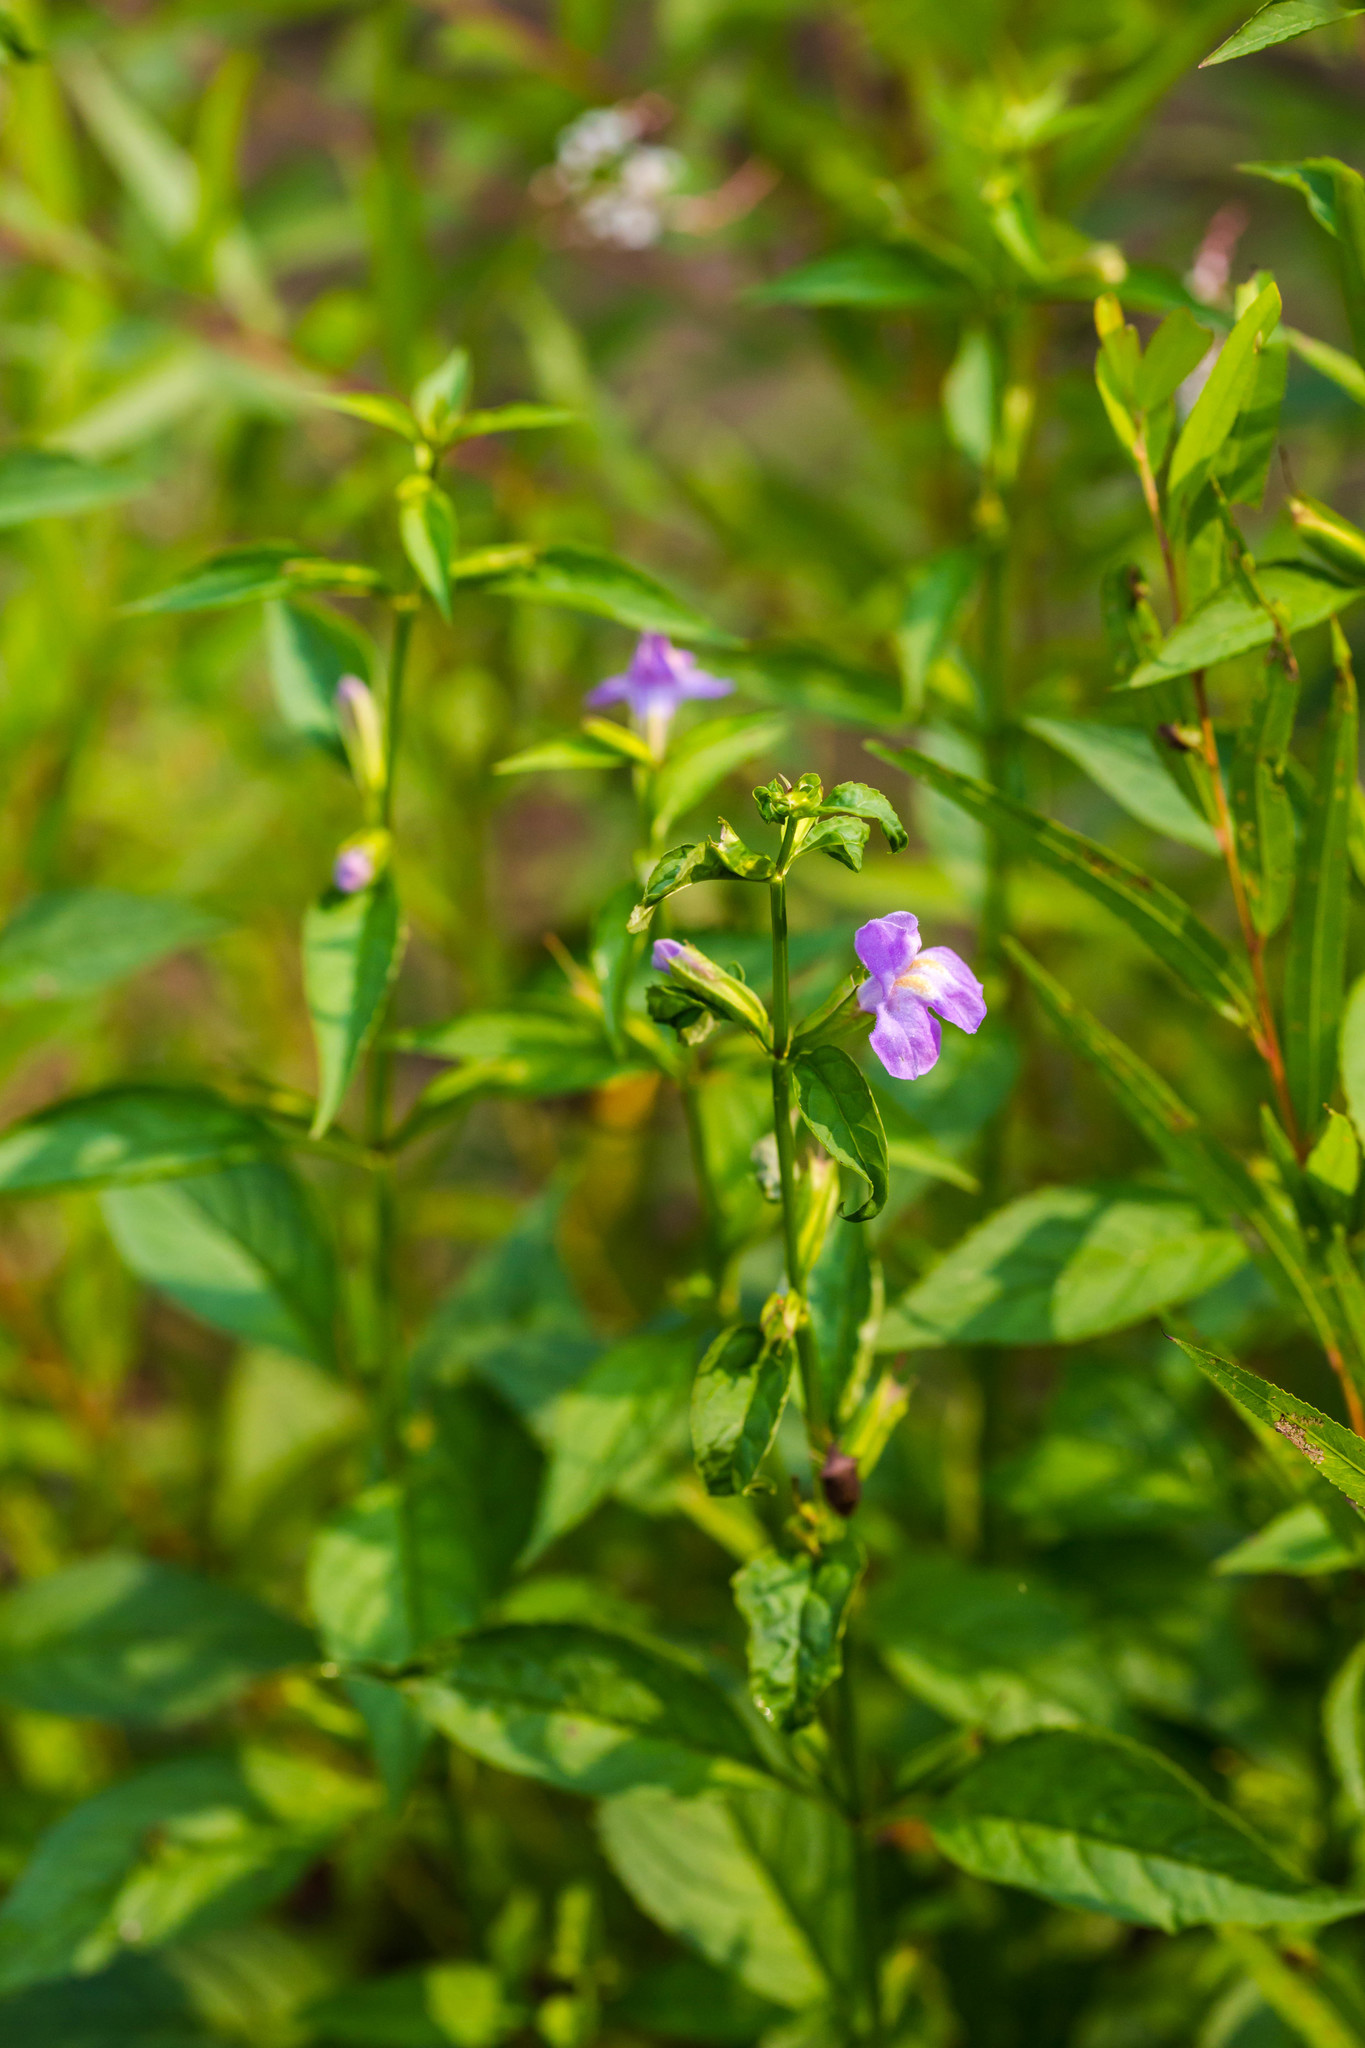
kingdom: Plantae
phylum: Tracheophyta
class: Magnoliopsida
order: Lamiales
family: Phrymaceae
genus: Mimulus
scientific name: Mimulus alatus
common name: Sharp-wing monkey-flower
